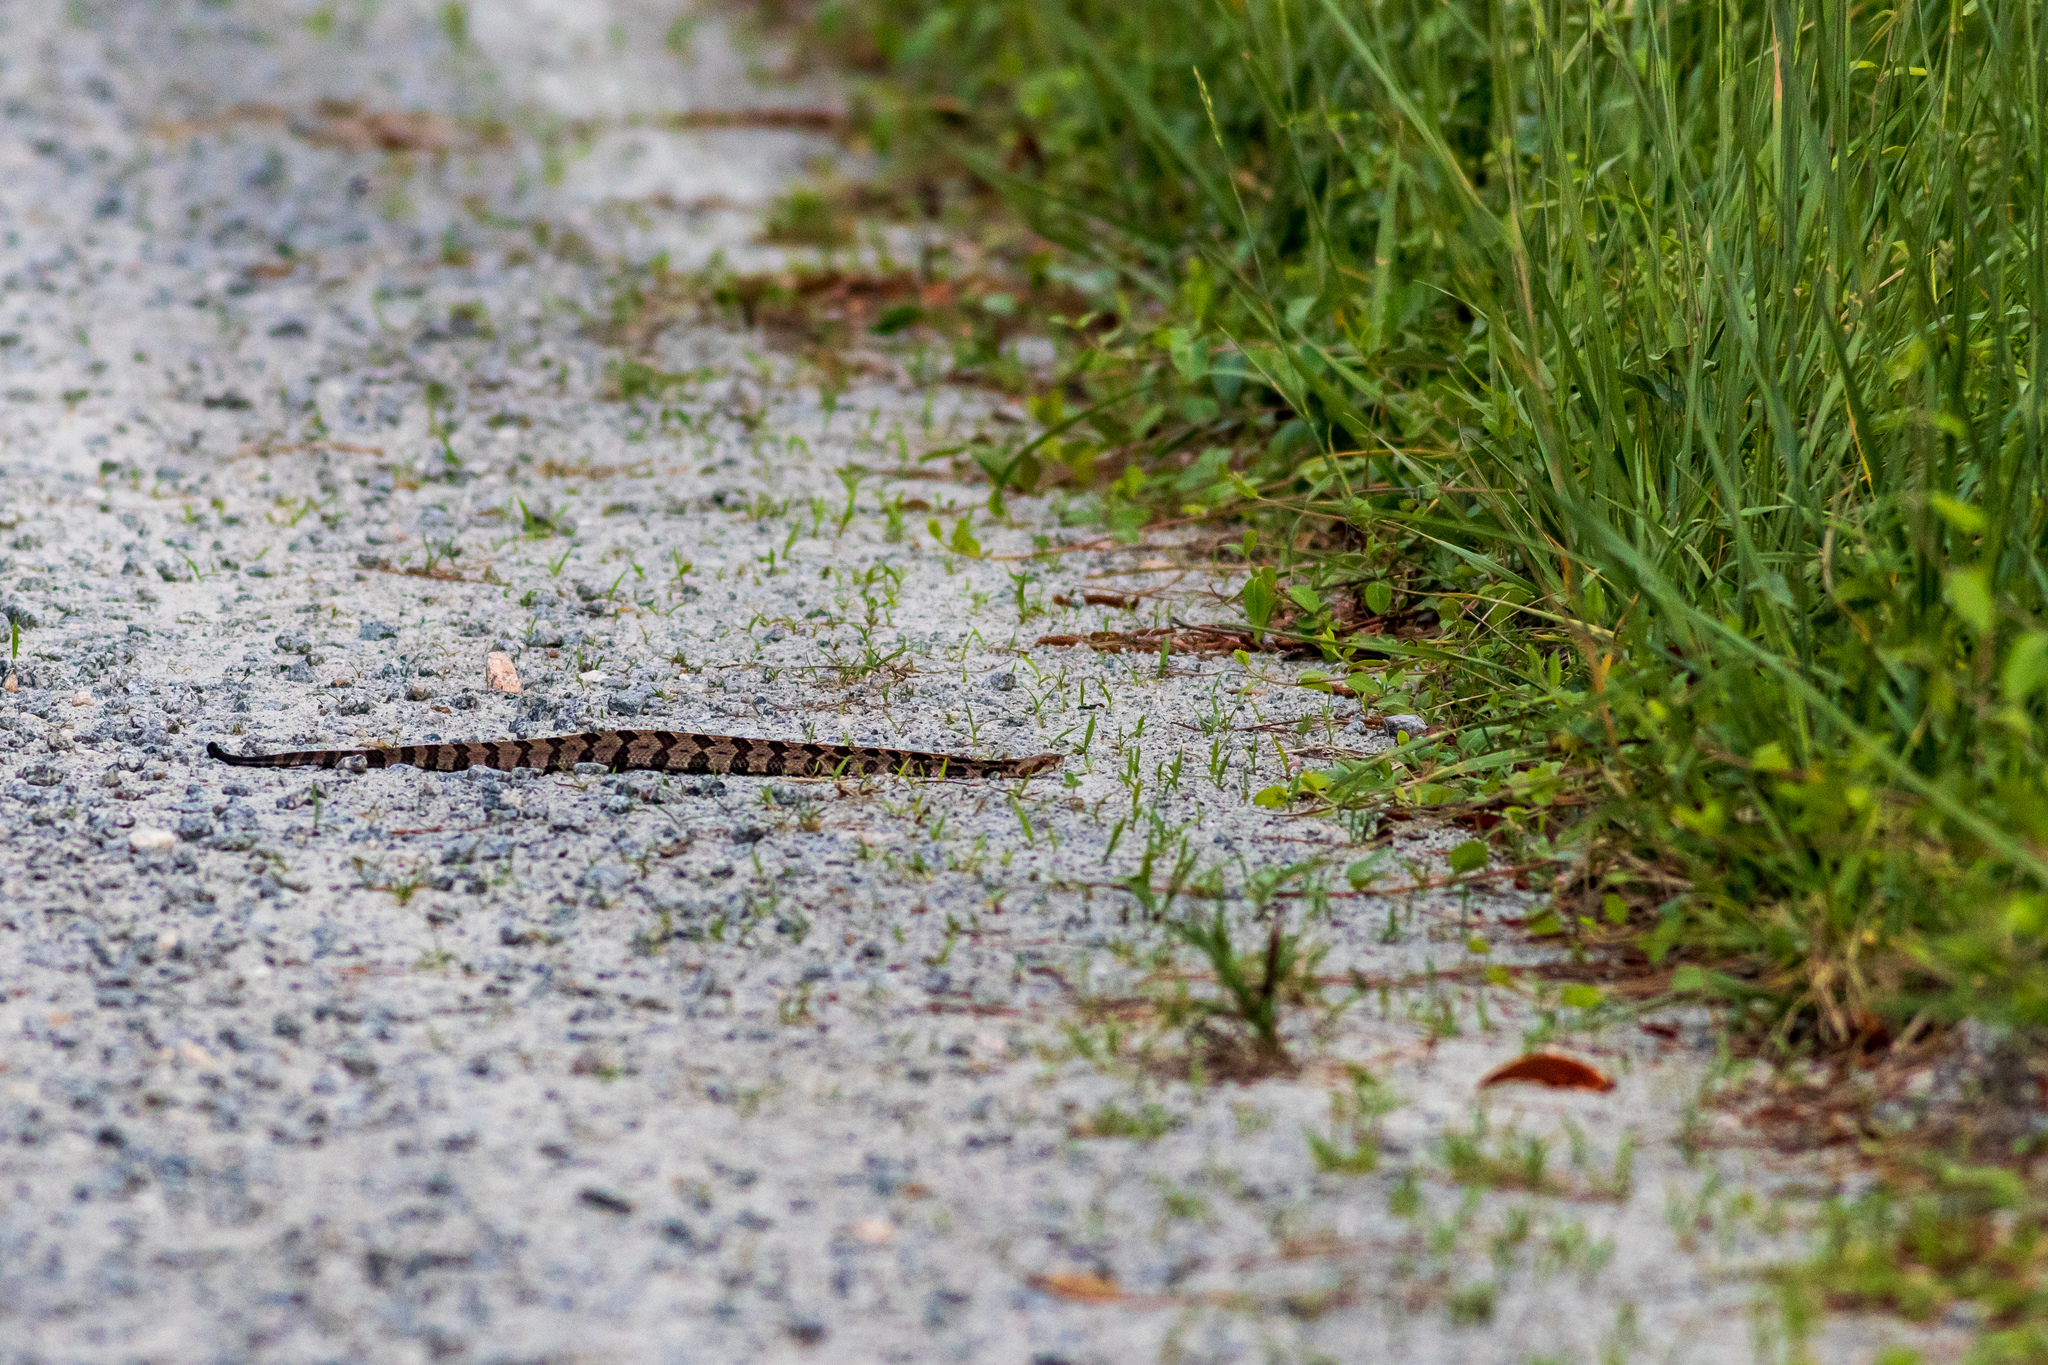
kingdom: Animalia
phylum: Chordata
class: Squamata
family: Viperidae
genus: Crotalus
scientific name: Crotalus horridus
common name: Timber rattlesnake
